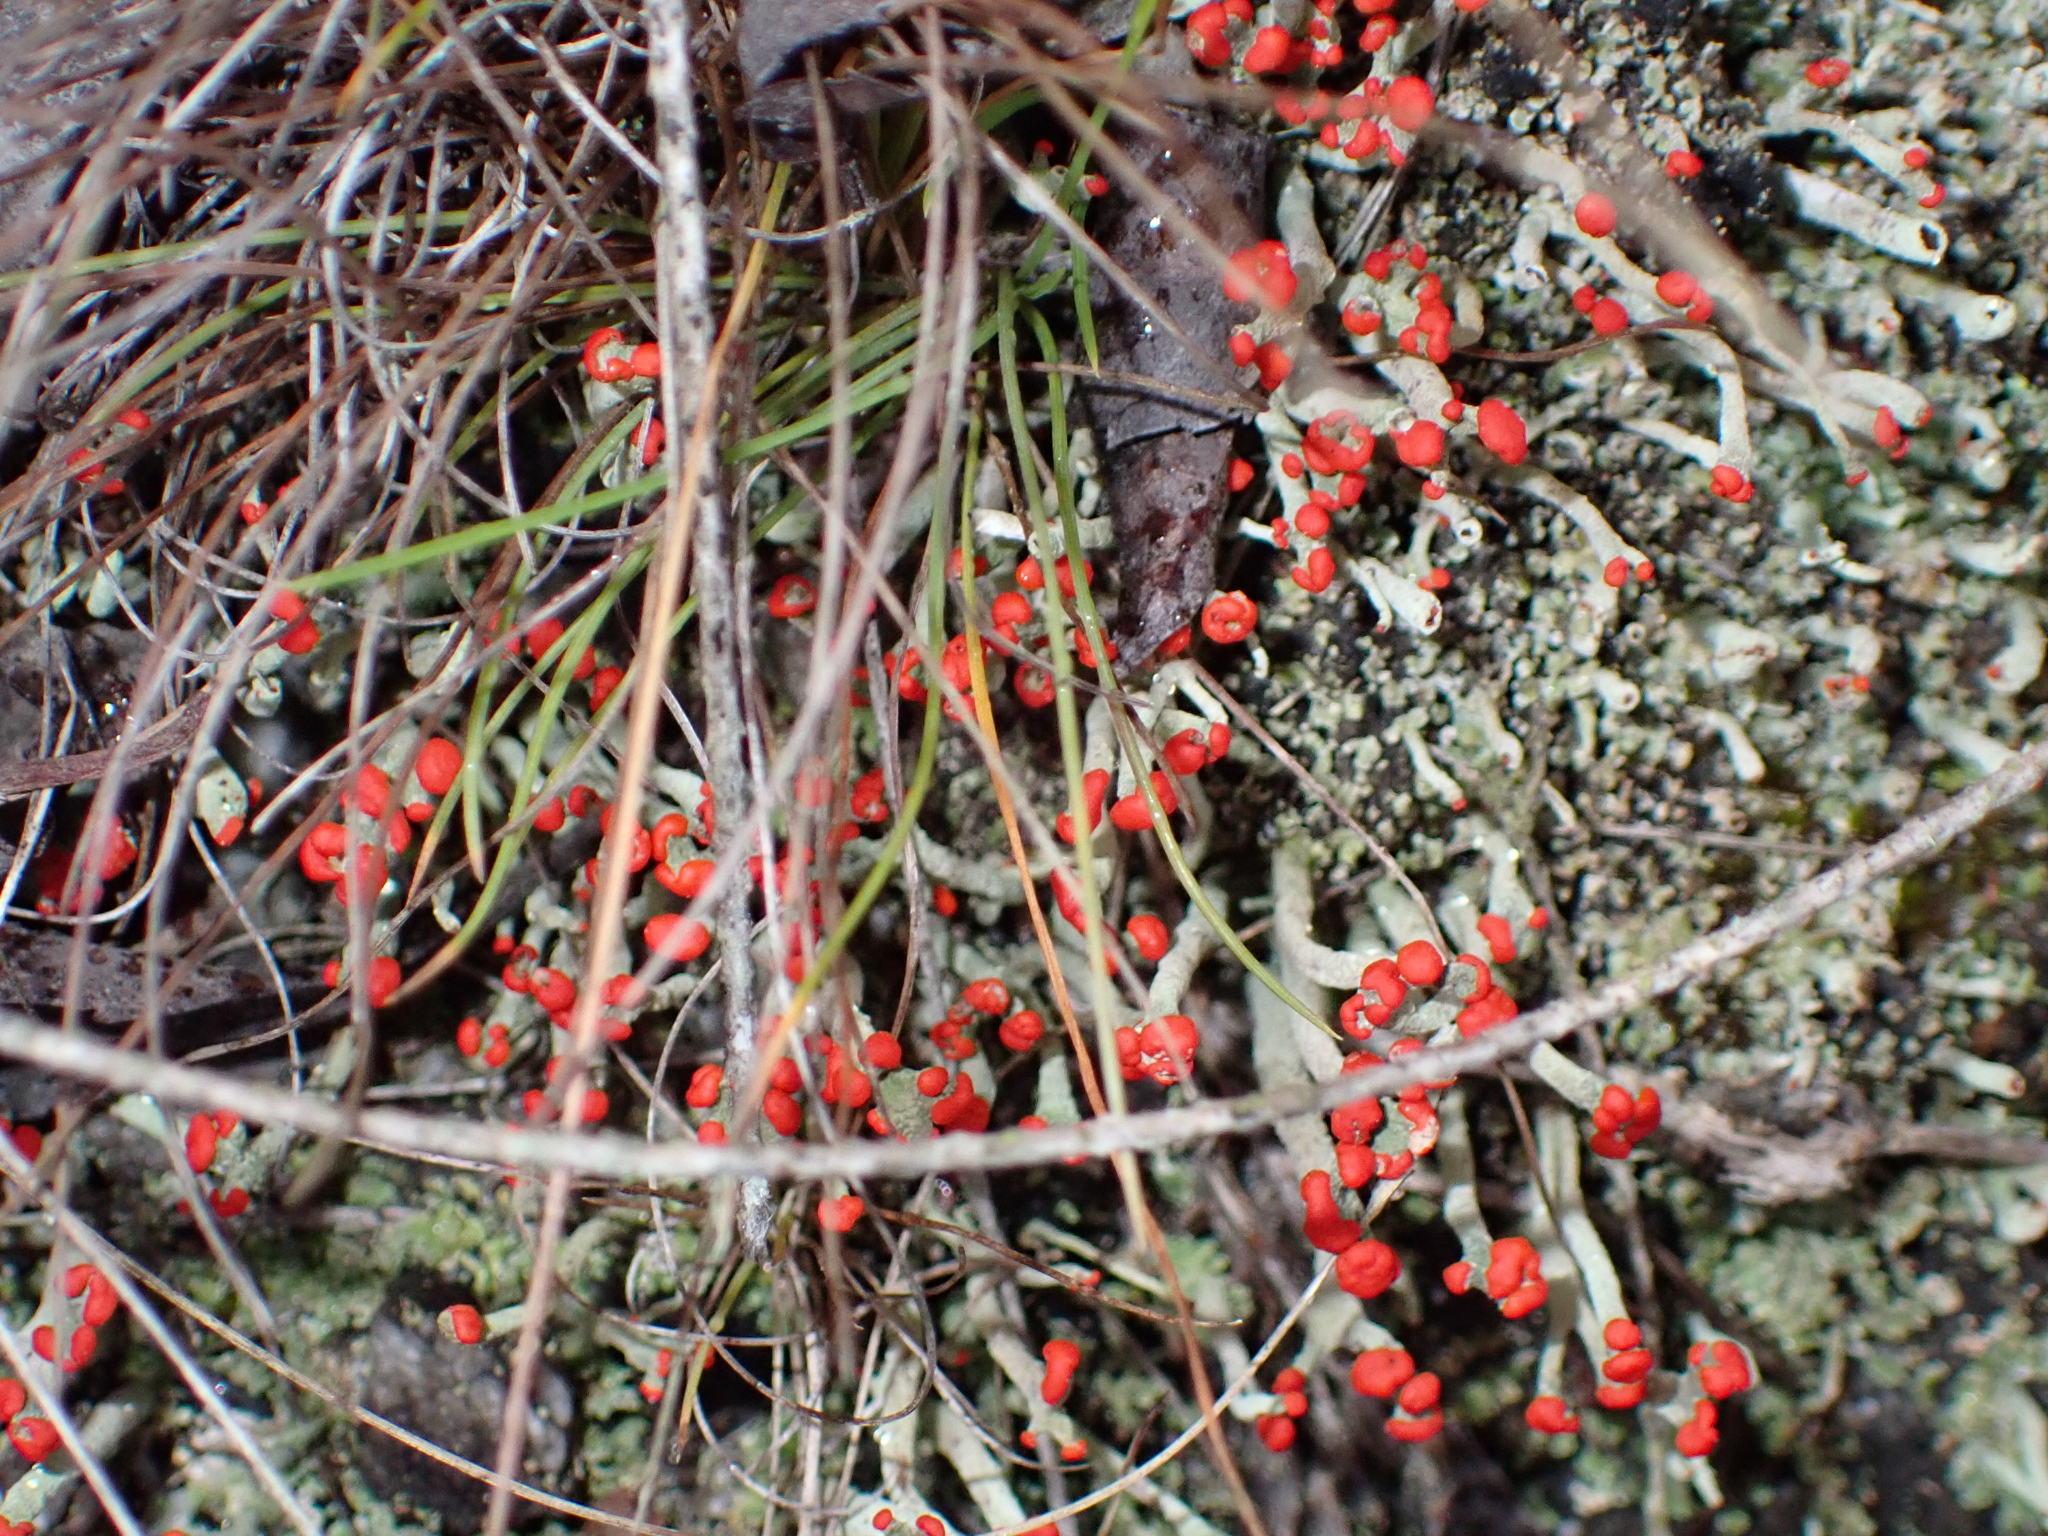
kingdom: Fungi
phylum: Ascomycota
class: Lecanoromycetes
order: Lecanorales
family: Cladoniaceae
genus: Cladonia
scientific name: Cladonia floerkeana
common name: Gritty british soldiers lichen
